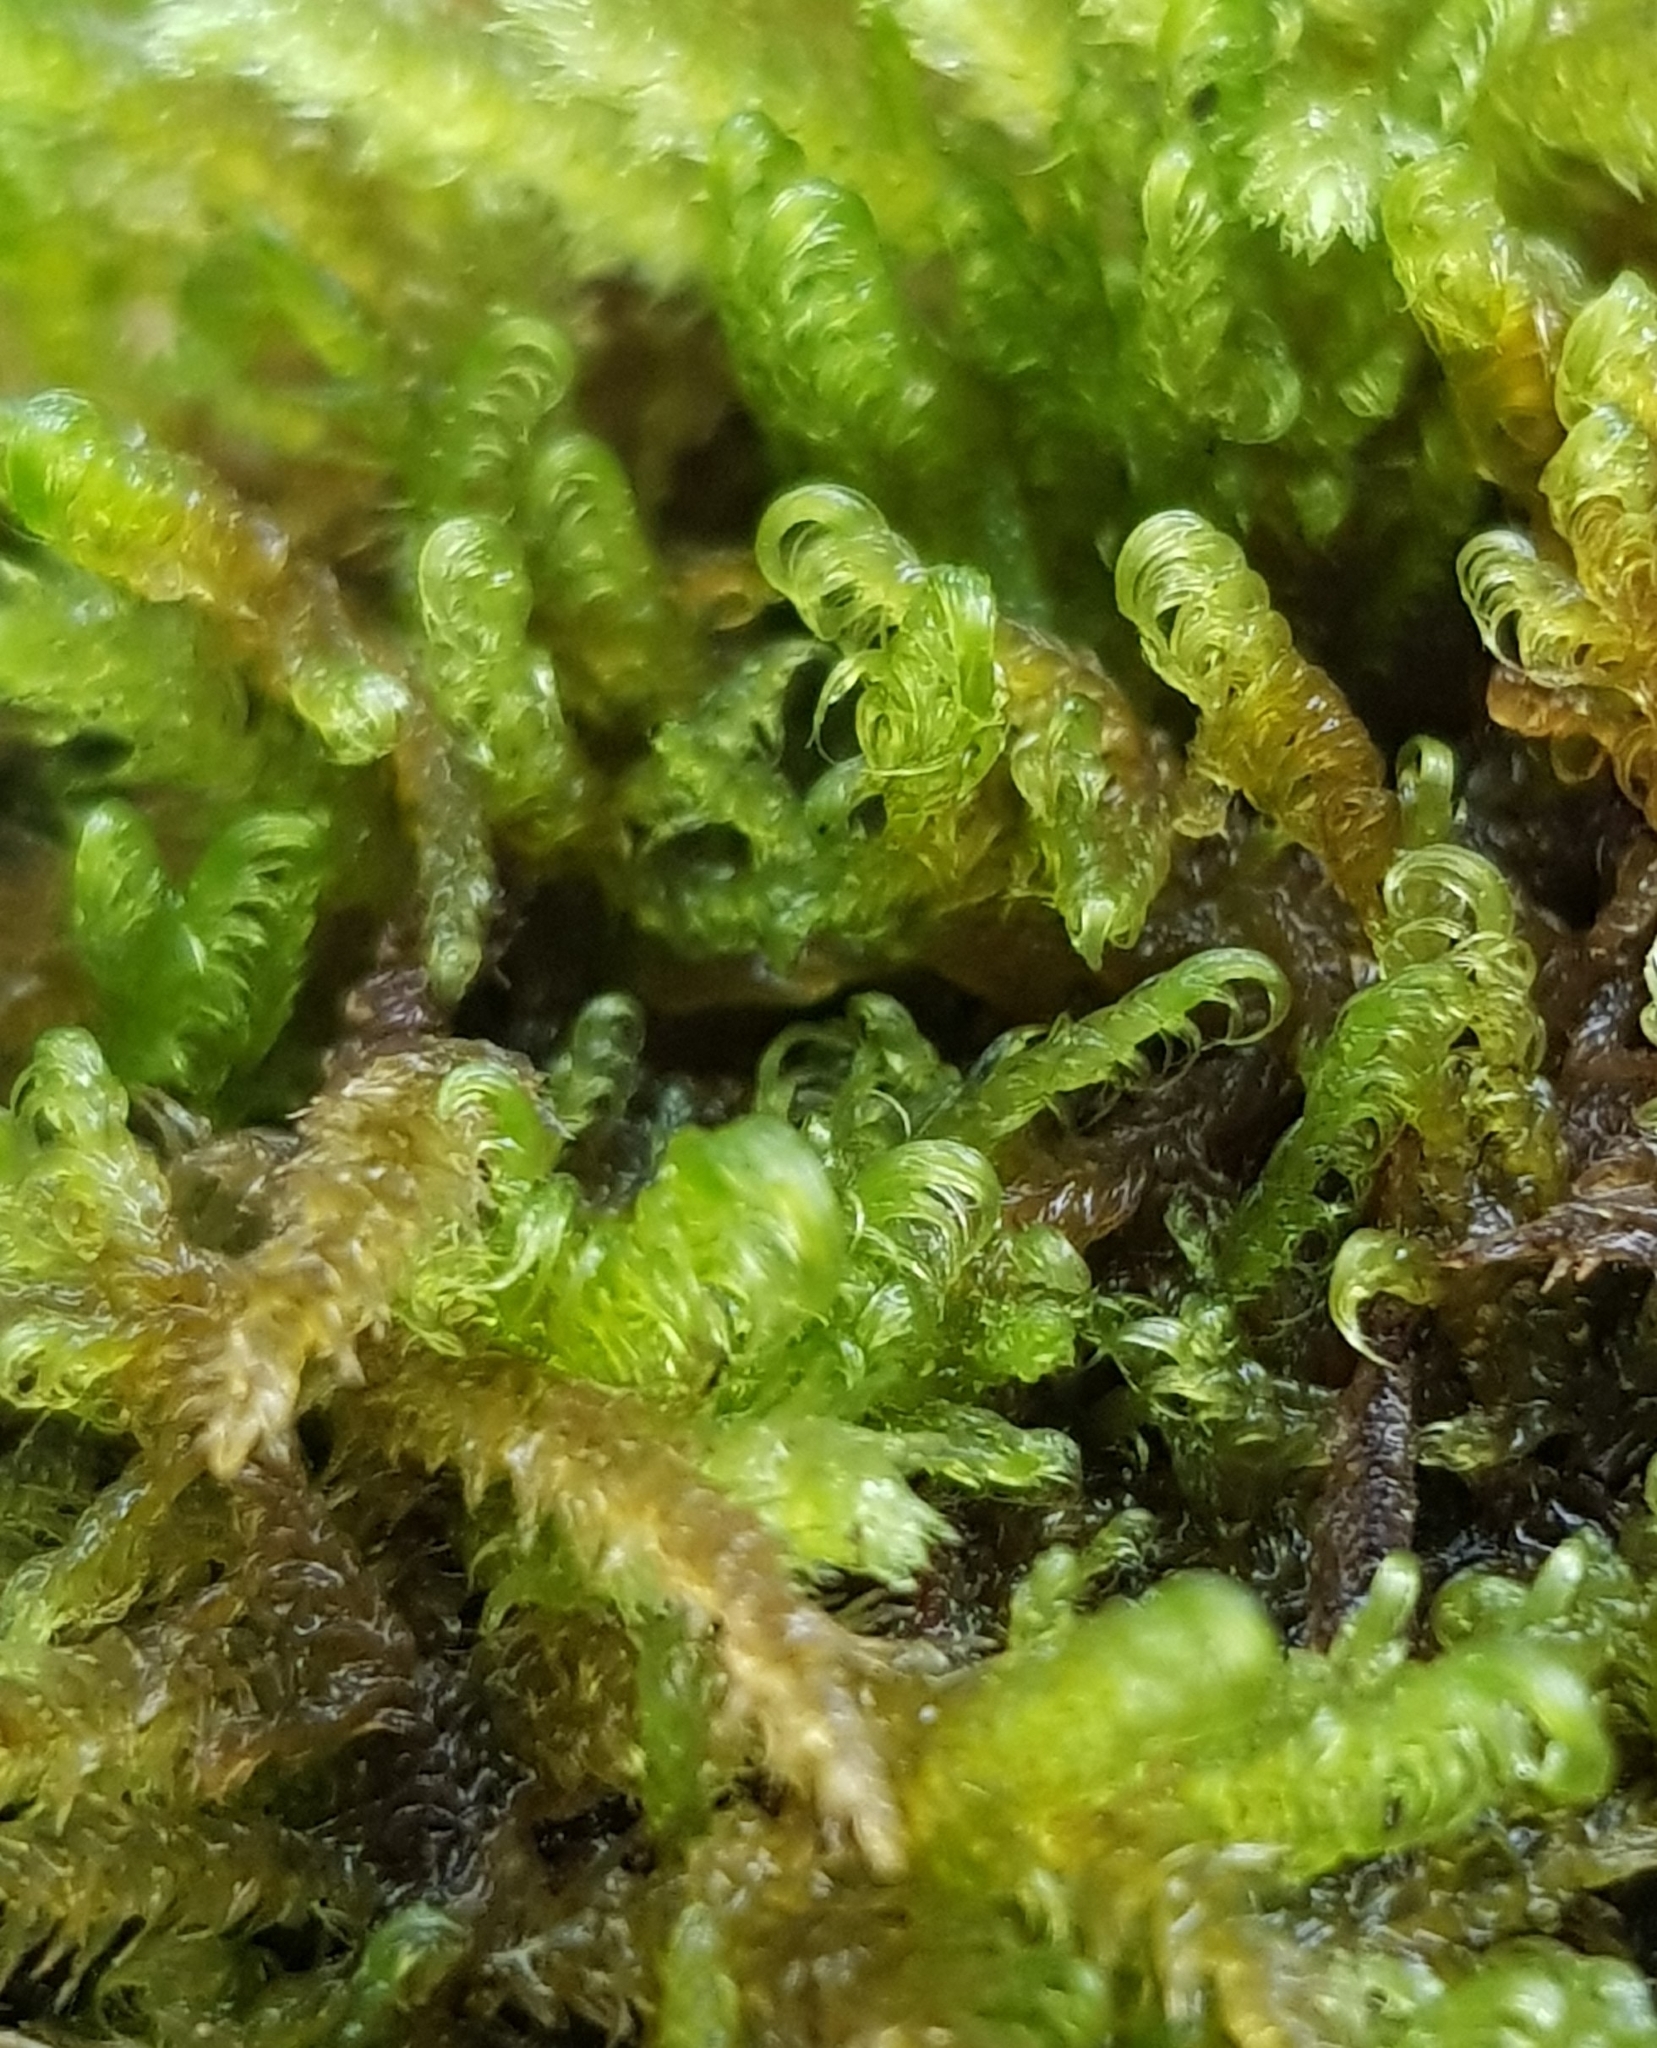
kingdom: Plantae
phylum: Bryophyta
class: Bryopsida
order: Hypnales
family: Scorpidiaceae
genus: Sanionia
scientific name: Sanionia uncinata
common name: Sickle moss
